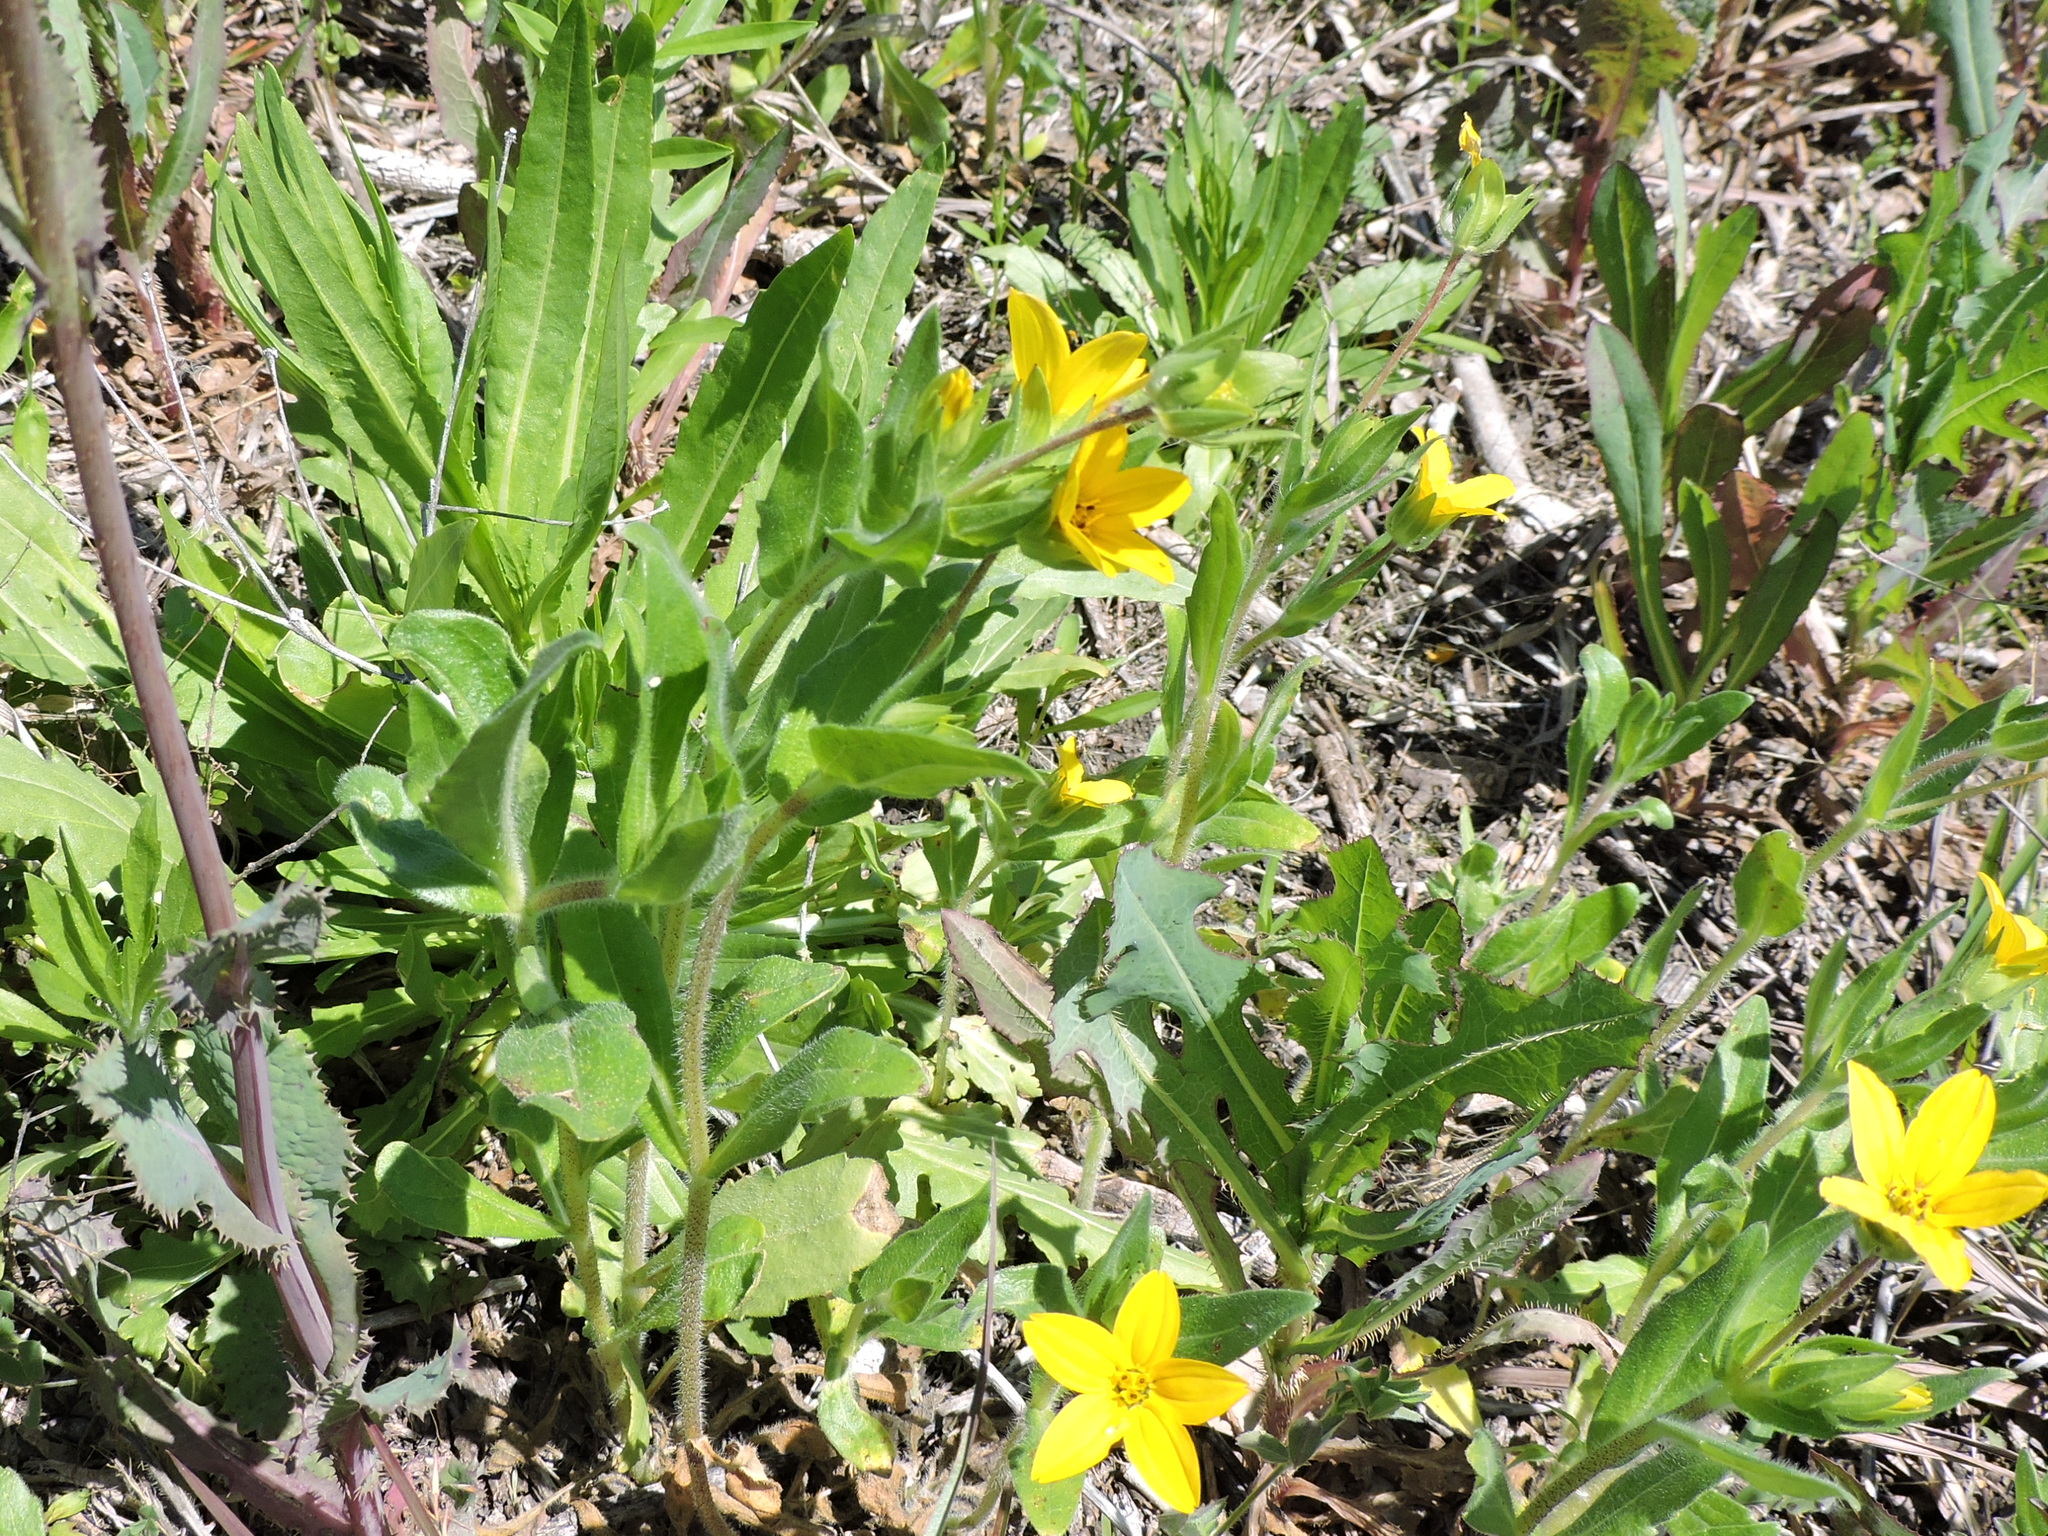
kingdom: Plantae
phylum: Tracheophyta
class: Magnoliopsida
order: Asterales
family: Asteraceae
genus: Lindheimera
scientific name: Lindheimera texana
